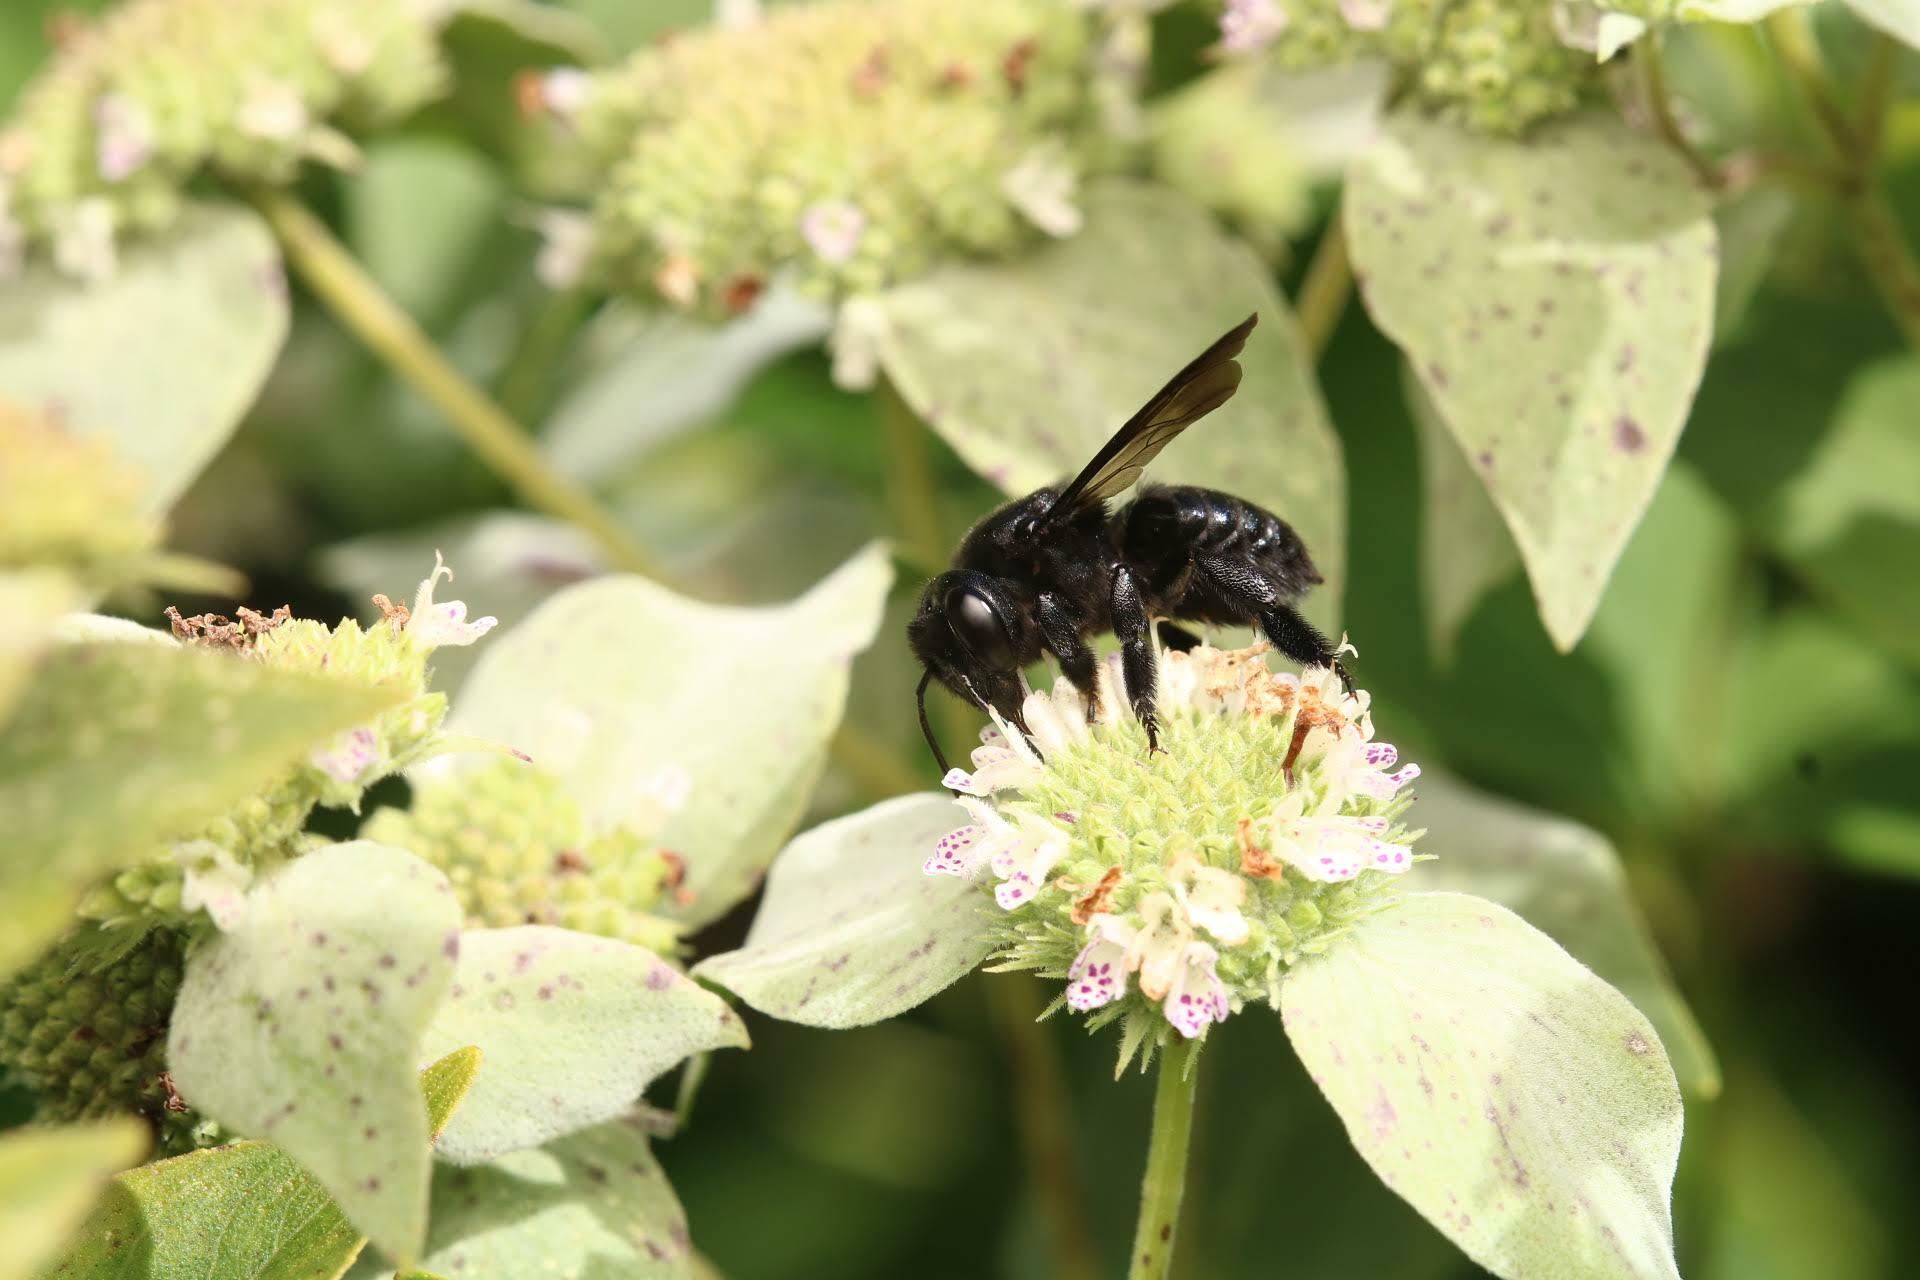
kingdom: Animalia
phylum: Arthropoda
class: Insecta
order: Hymenoptera
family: Megachilidae
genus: Megachile
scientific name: Megachile xylocopoides
